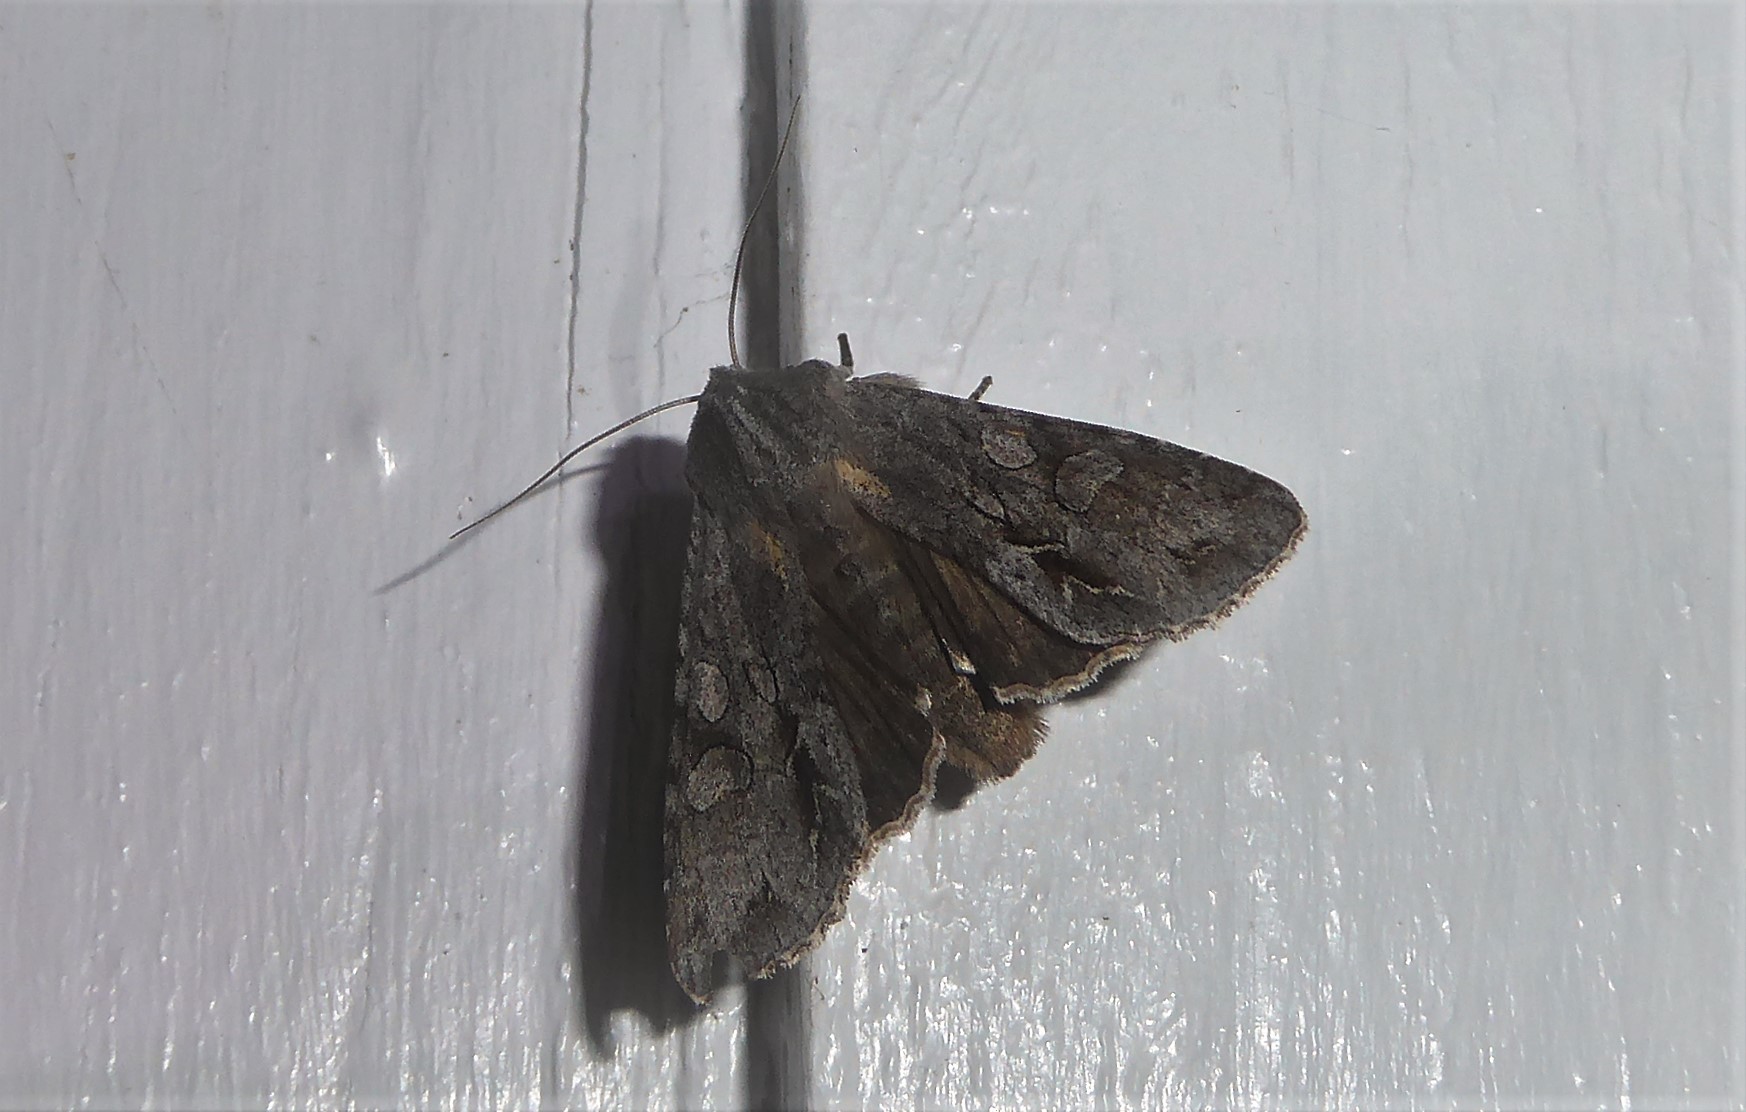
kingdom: Animalia
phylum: Arthropoda
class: Insecta
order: Lepidoptera
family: Noctuidae
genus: Ichneutica
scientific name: Ichneutica
